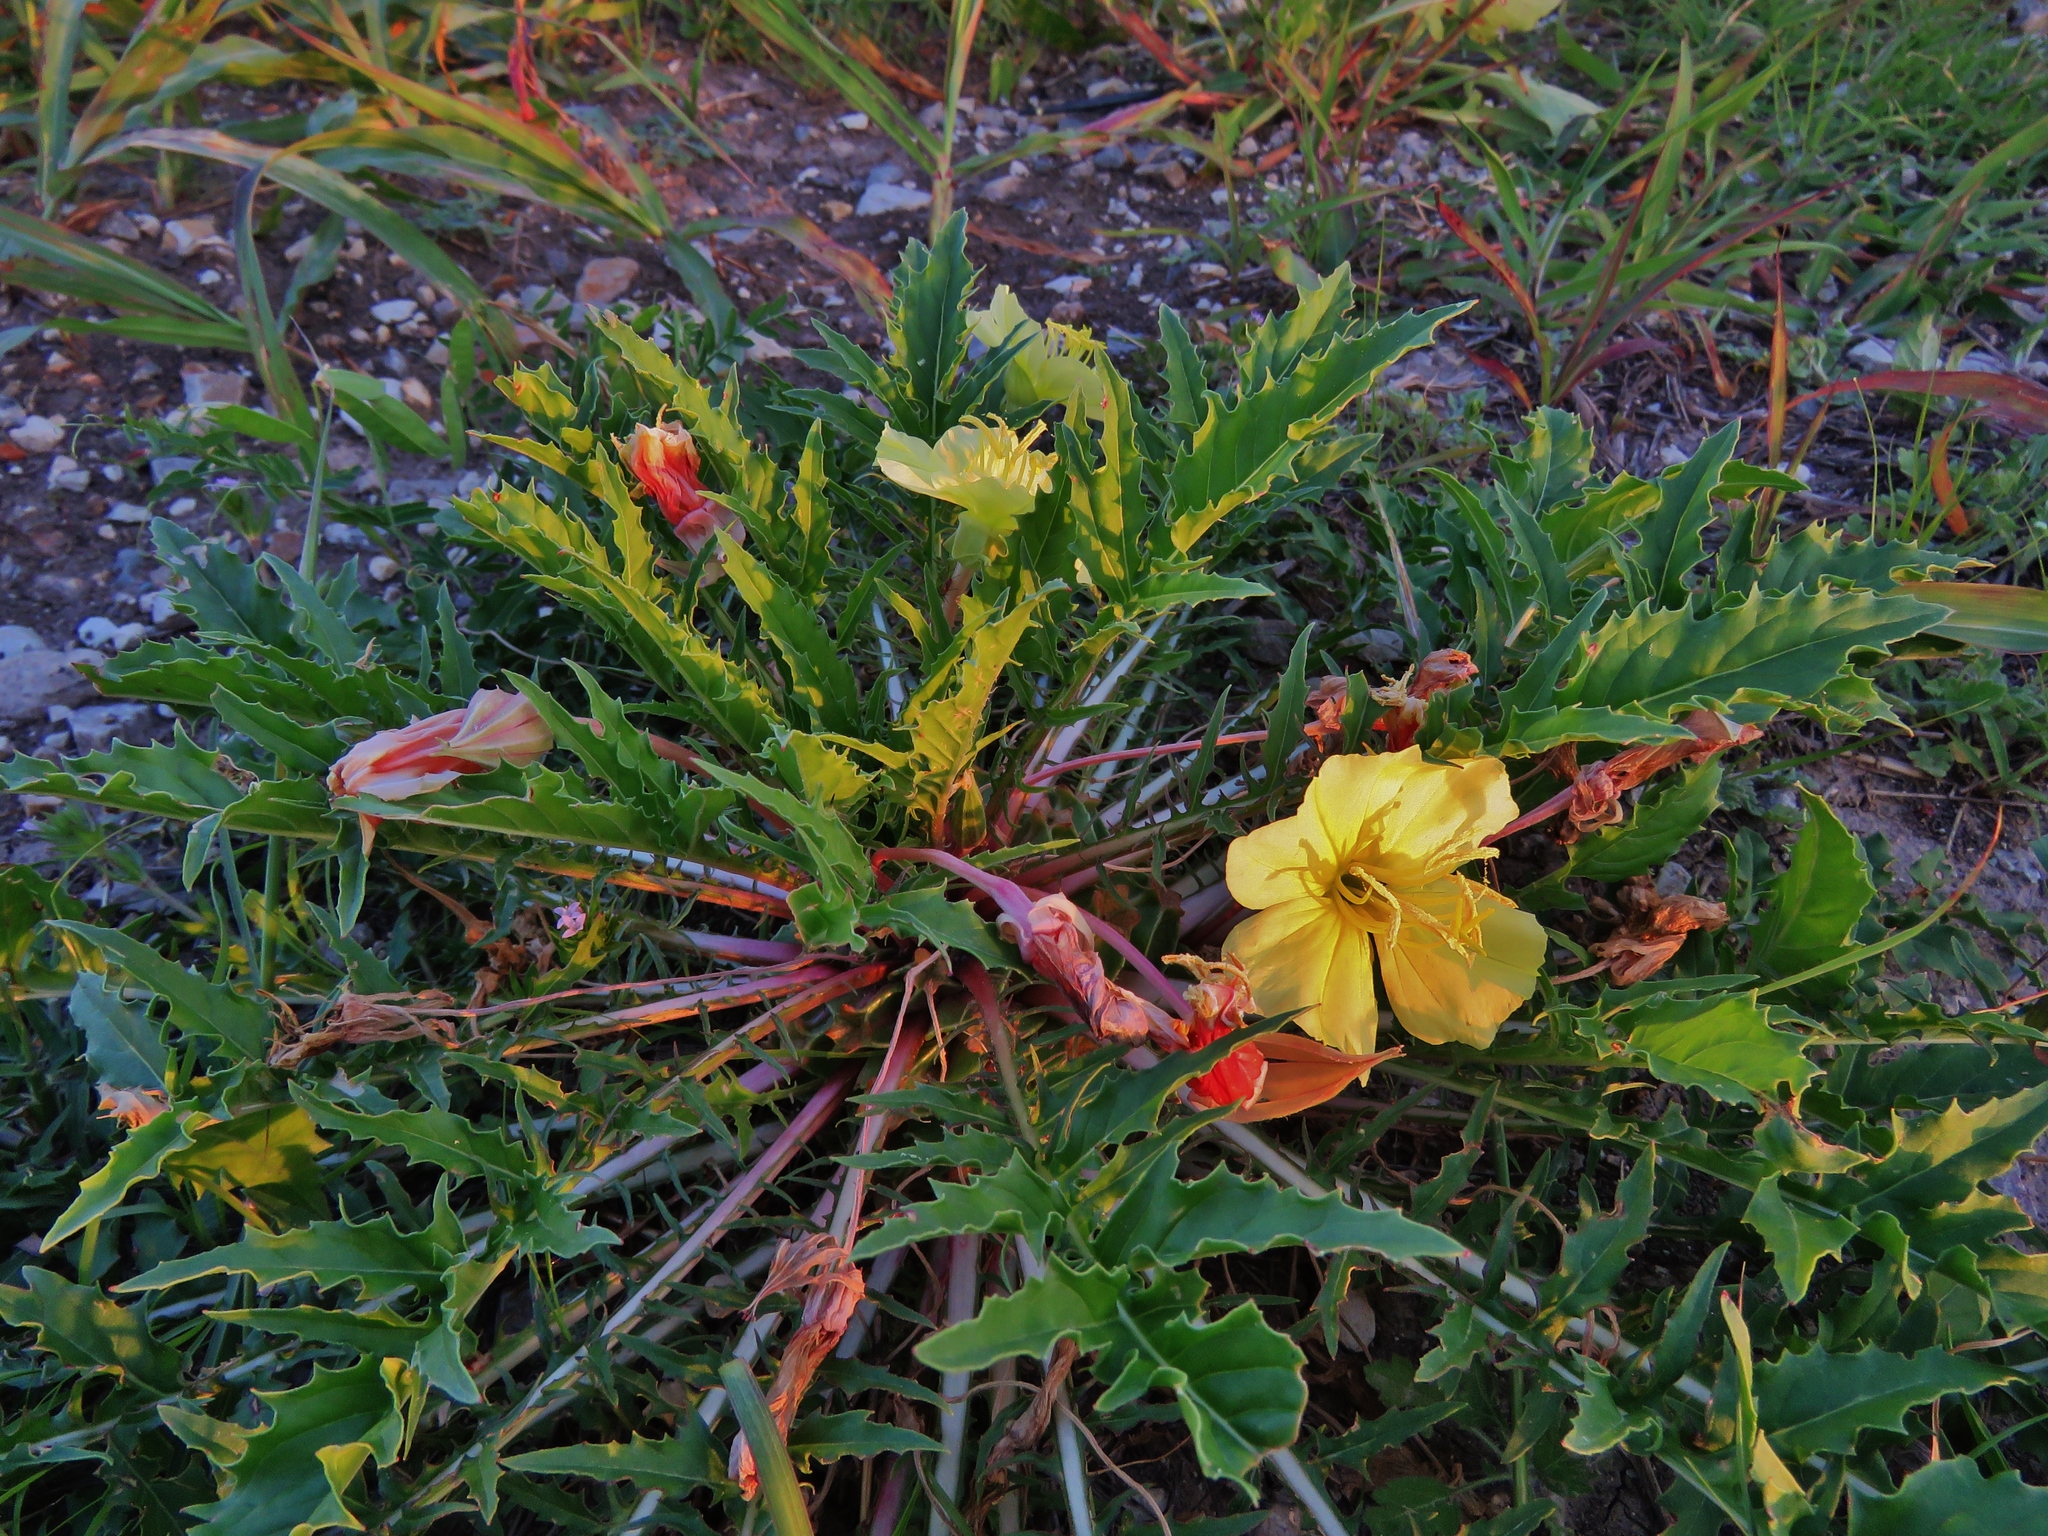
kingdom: Plantae
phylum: Tracheophyta
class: Magnoliopsida
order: Myrtales
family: Onagraceae
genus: Oenothera
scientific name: Oenothera triloba
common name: Sessile evening-primrose
